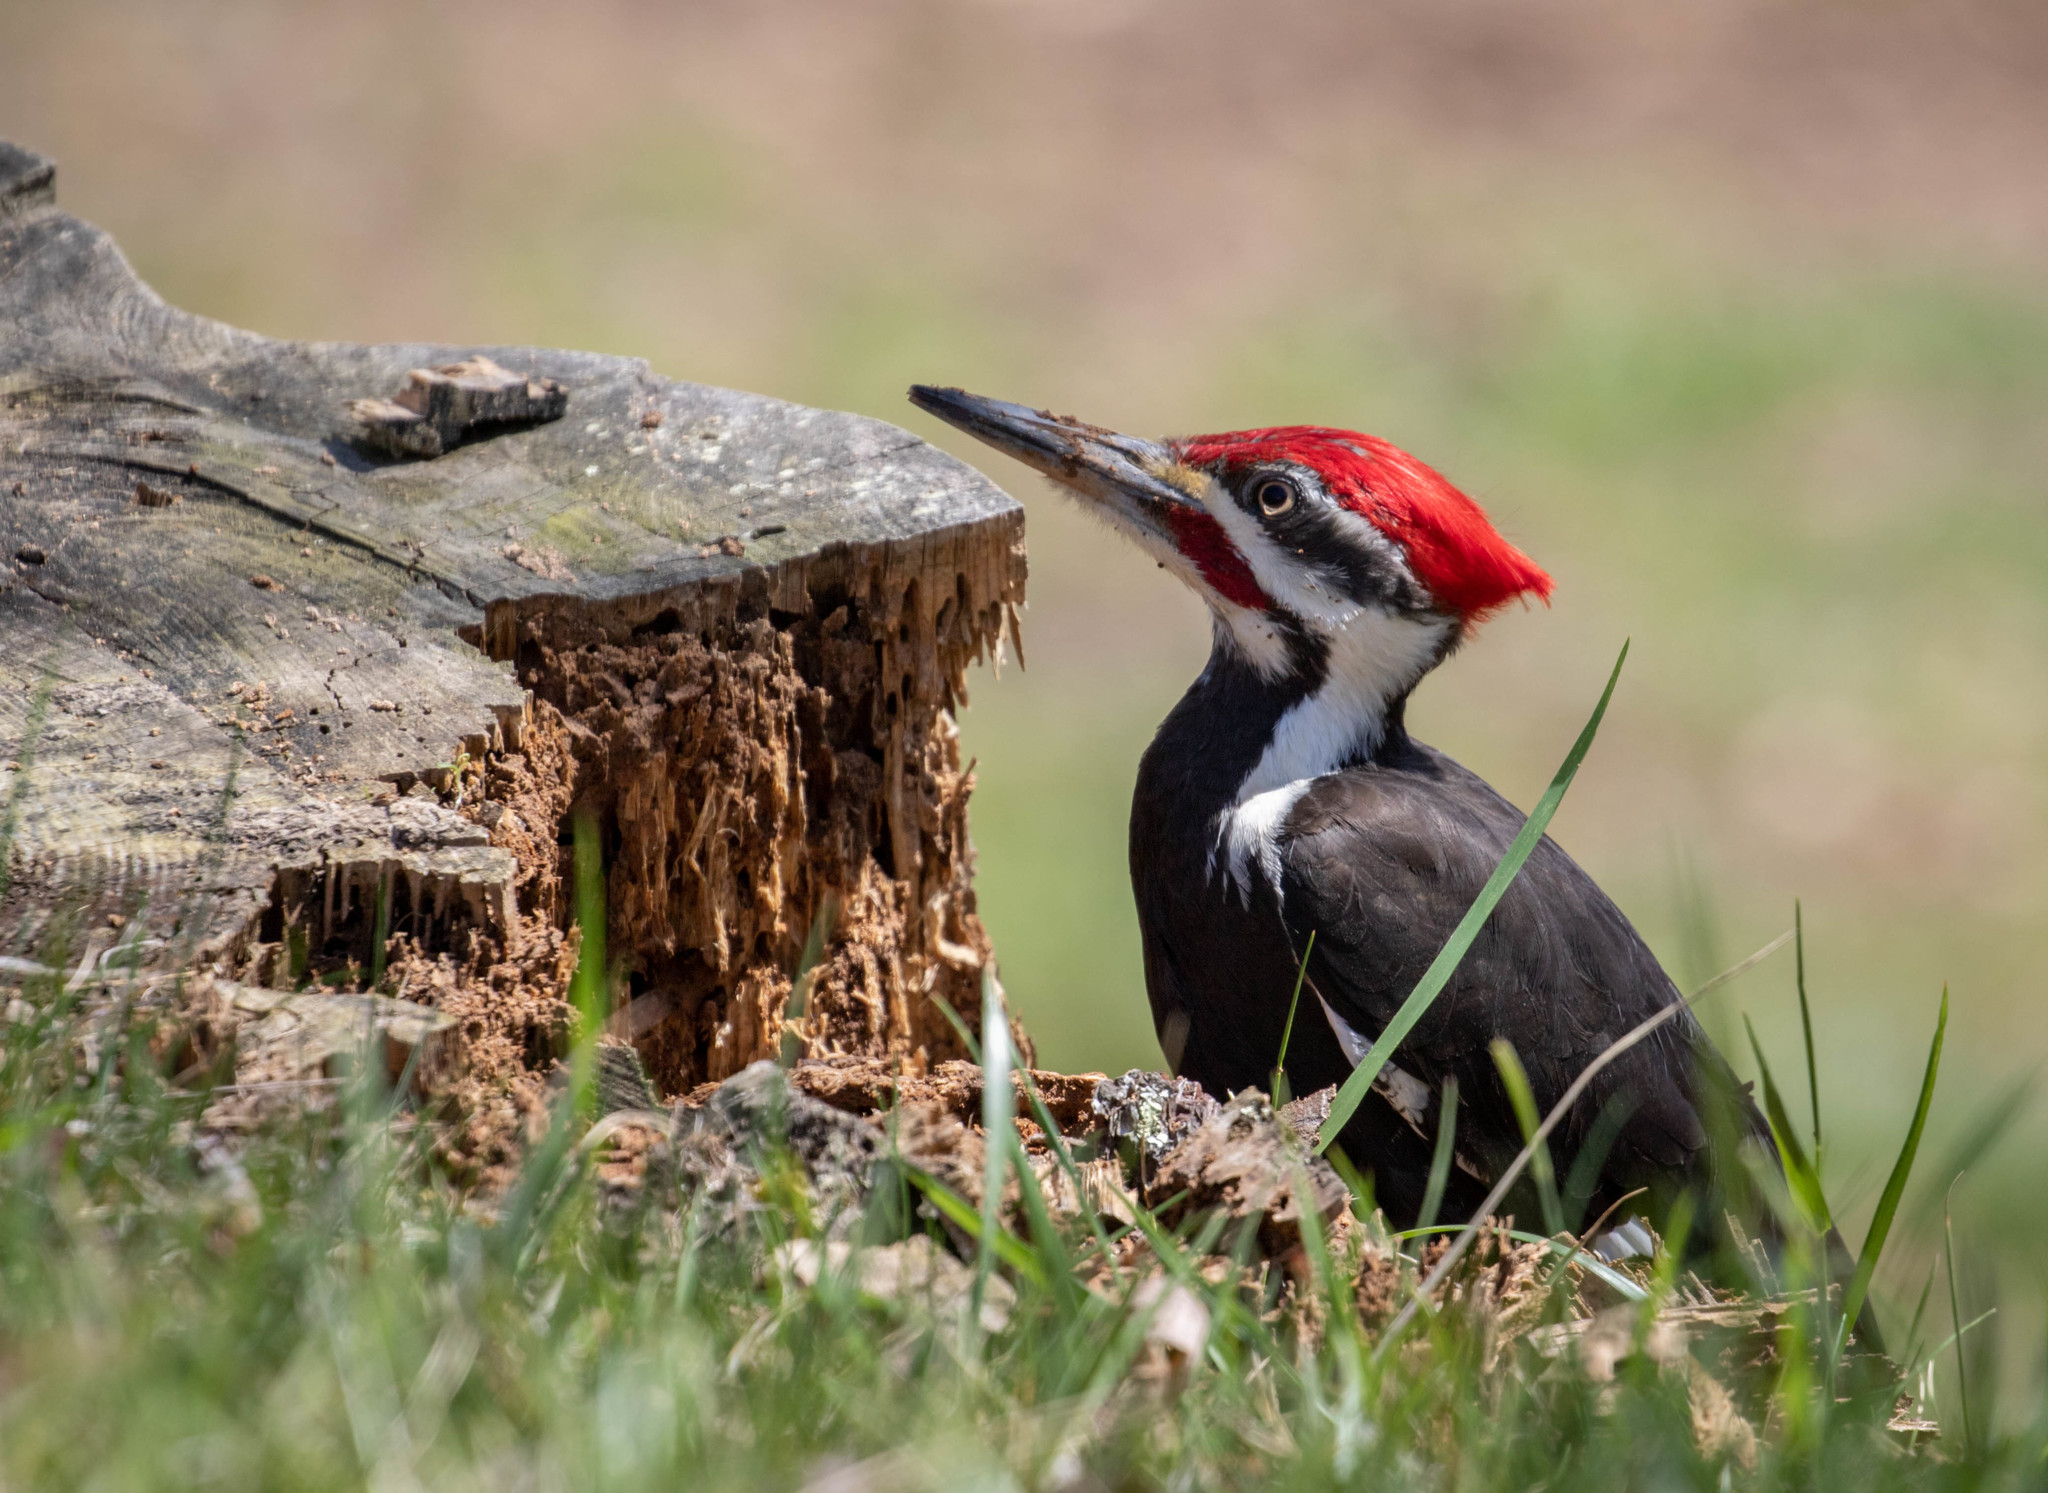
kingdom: Animalia
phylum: Chordata
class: Aves
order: Piciformes
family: Picidae
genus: Dryocopus
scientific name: Dryocopus pileatus
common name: Pileated woodpecker
